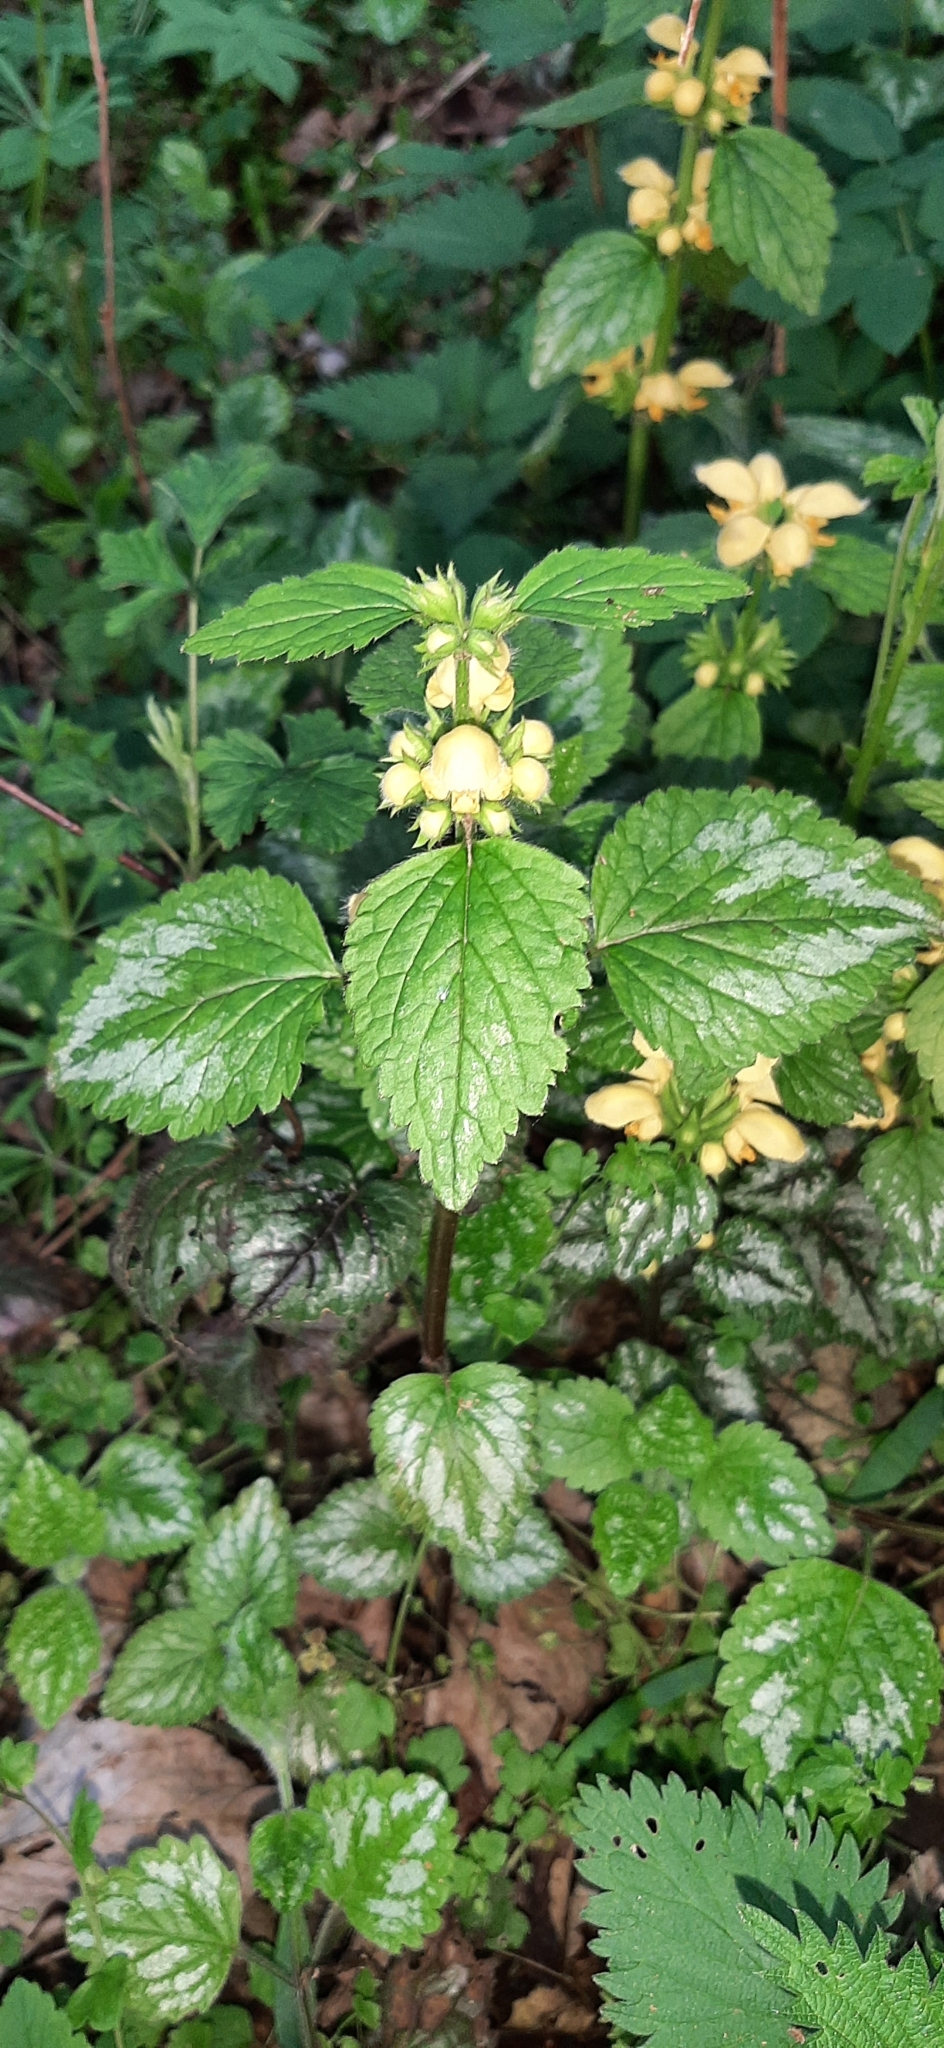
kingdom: Plantae
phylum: Tracheophyta
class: Magnoliopsida
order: Lamiales
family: Lamiaceae
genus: Lamium
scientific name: Lamium galeobdolon
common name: Yellow archangel
